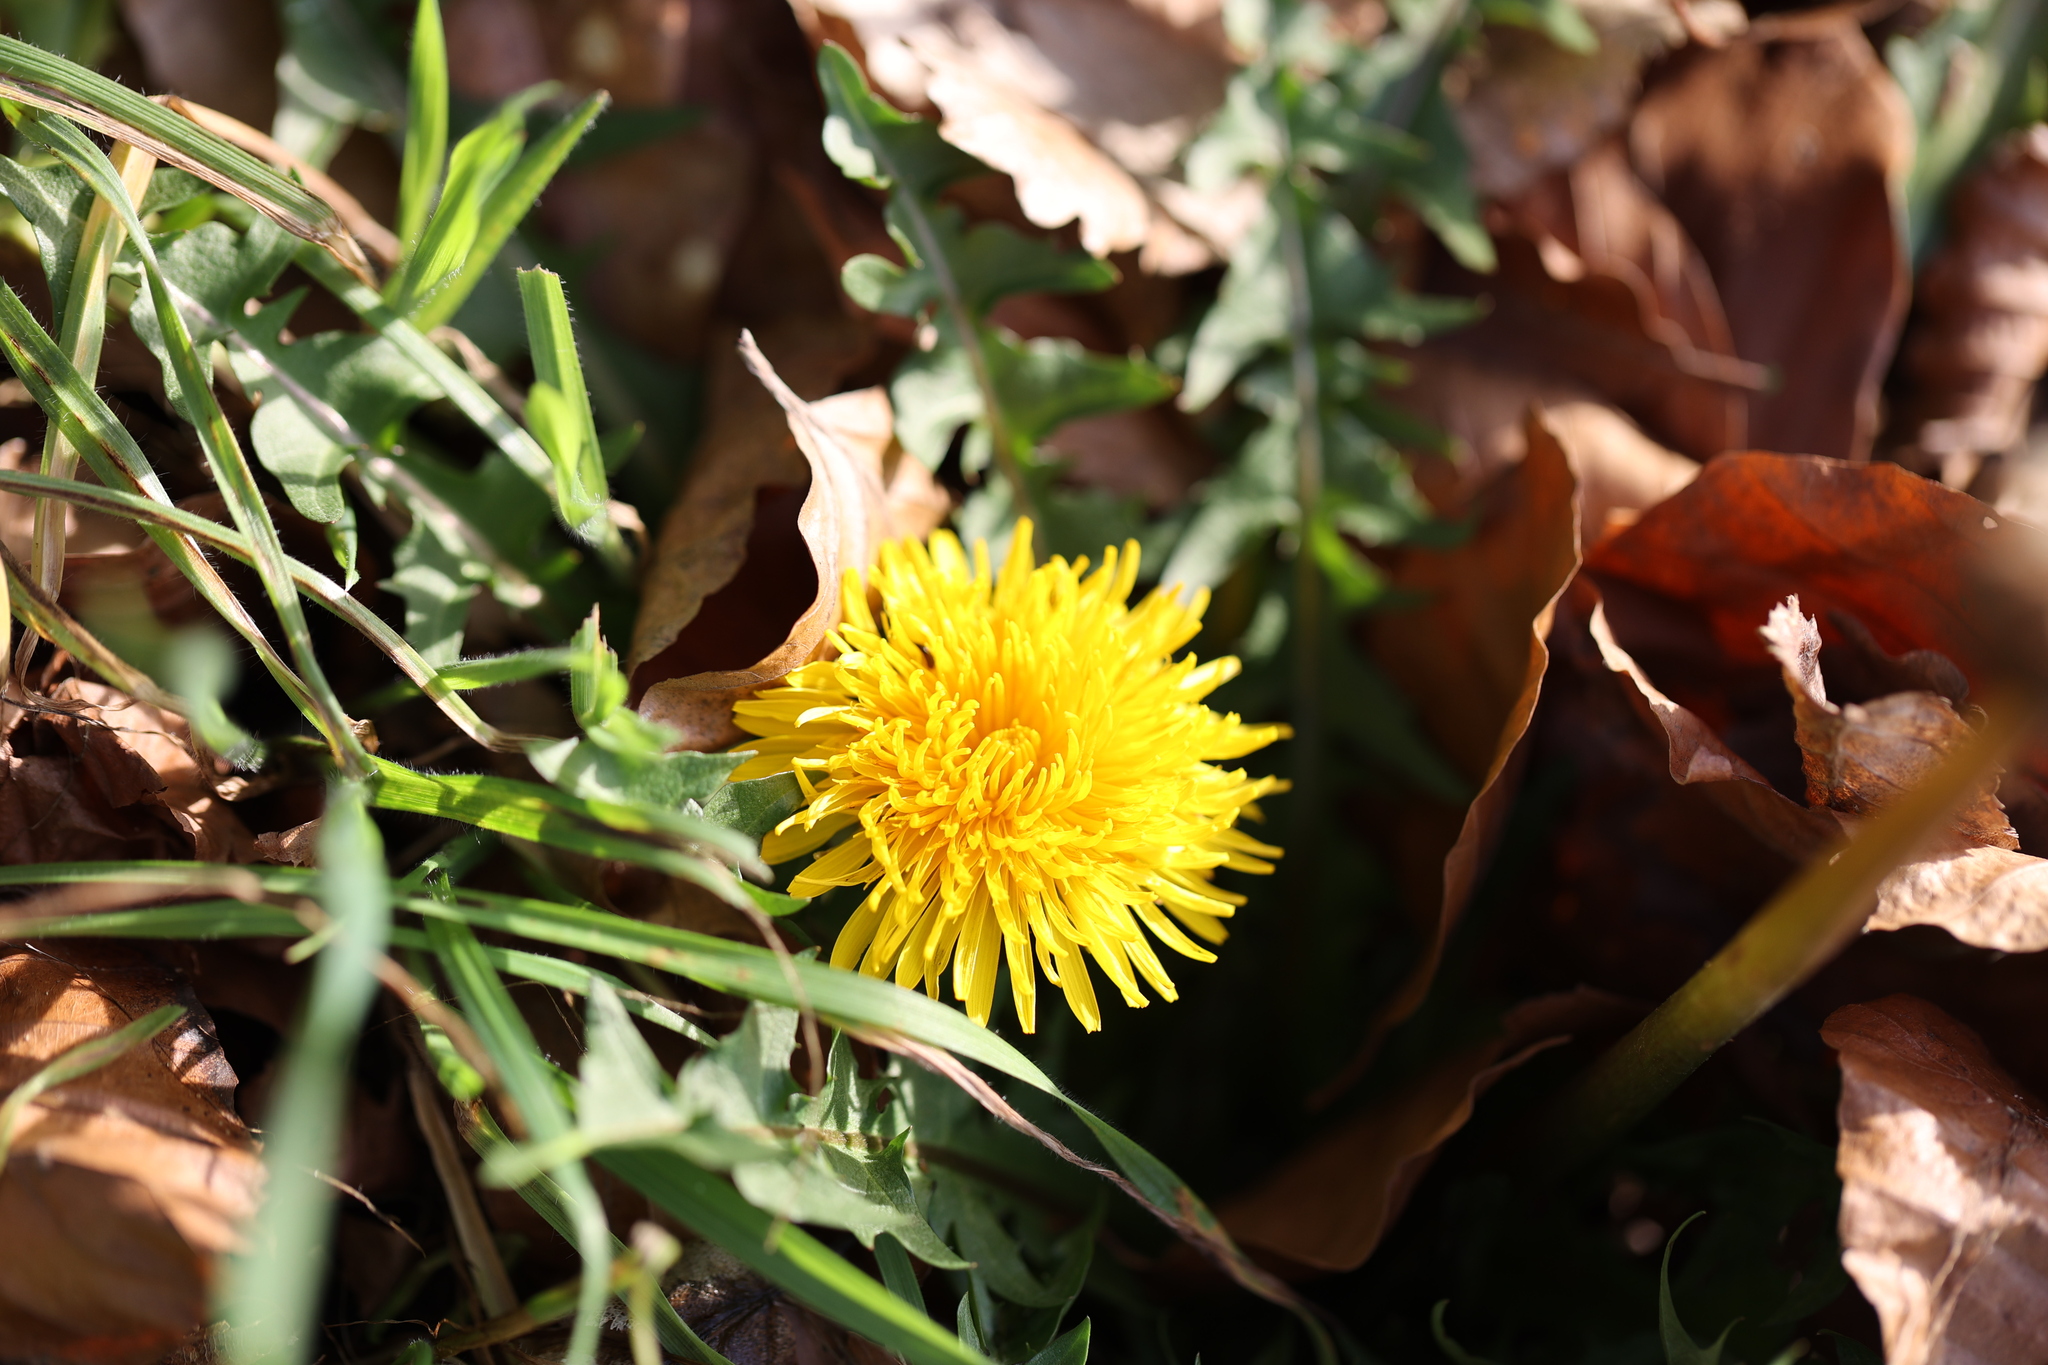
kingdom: Plantae
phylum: Tracheophyta
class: Magnoliopsida
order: Asterales
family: Asteraceae
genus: Taraxacum
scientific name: Taraxacum officinale
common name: Common dandelion
